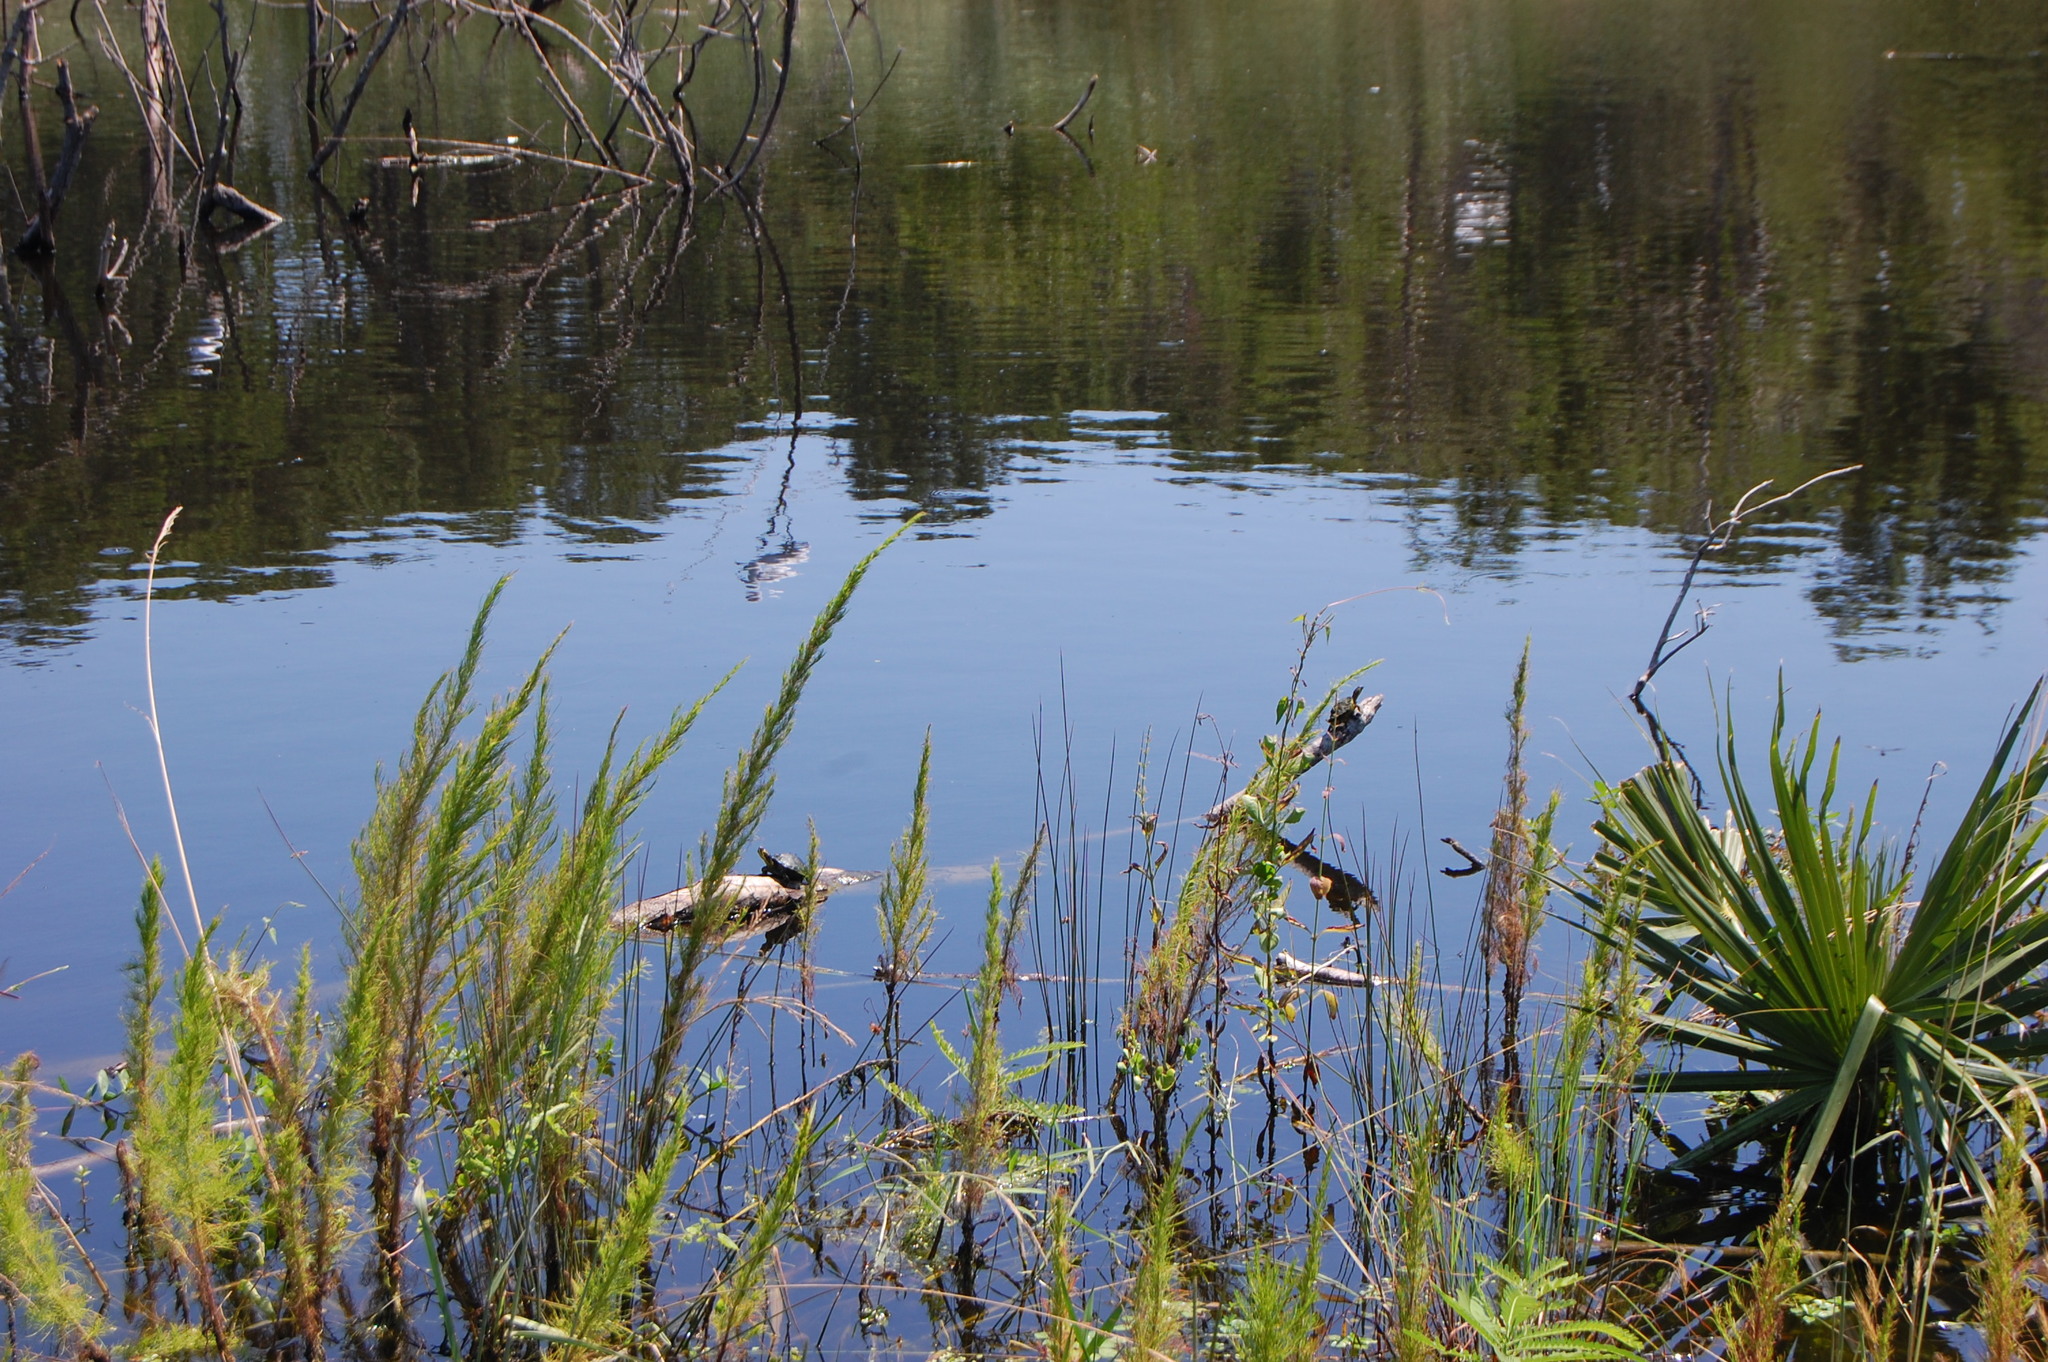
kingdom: Animalia
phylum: Chordata
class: Testudines
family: Emydidae
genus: Trachemys
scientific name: Trachemys scripta
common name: Slider
